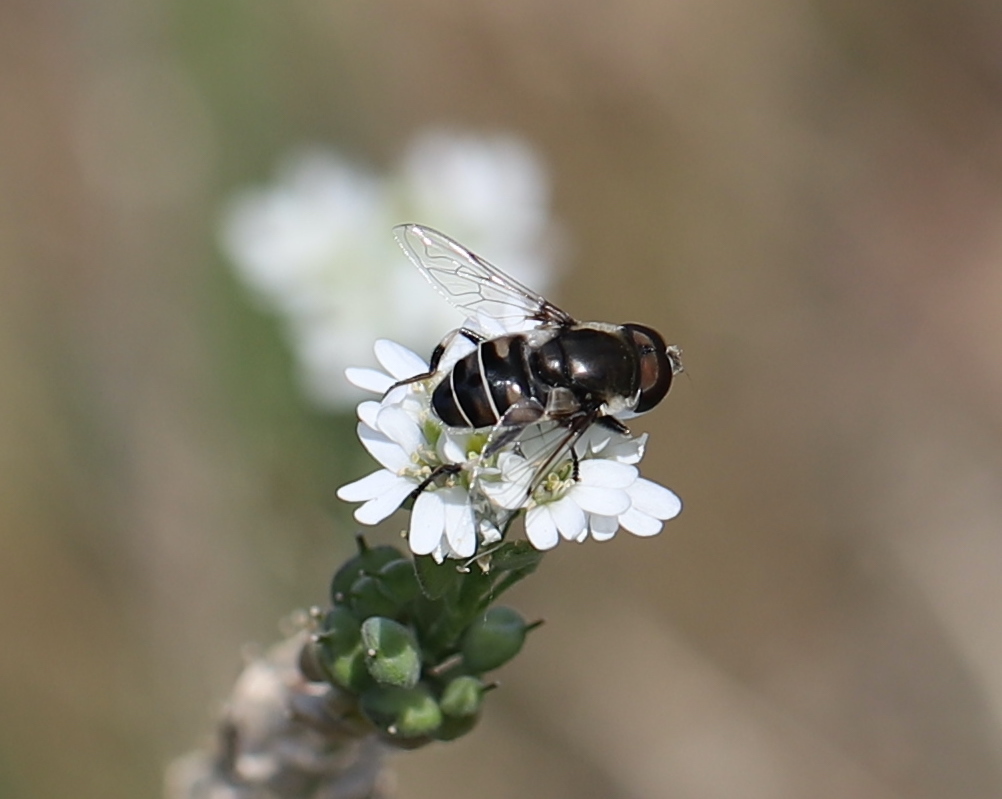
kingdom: Animalia
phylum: Arthropoda
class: Insecta
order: Diptera
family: Syrphidae
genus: Eristalis
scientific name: Eristalis dimidiata
